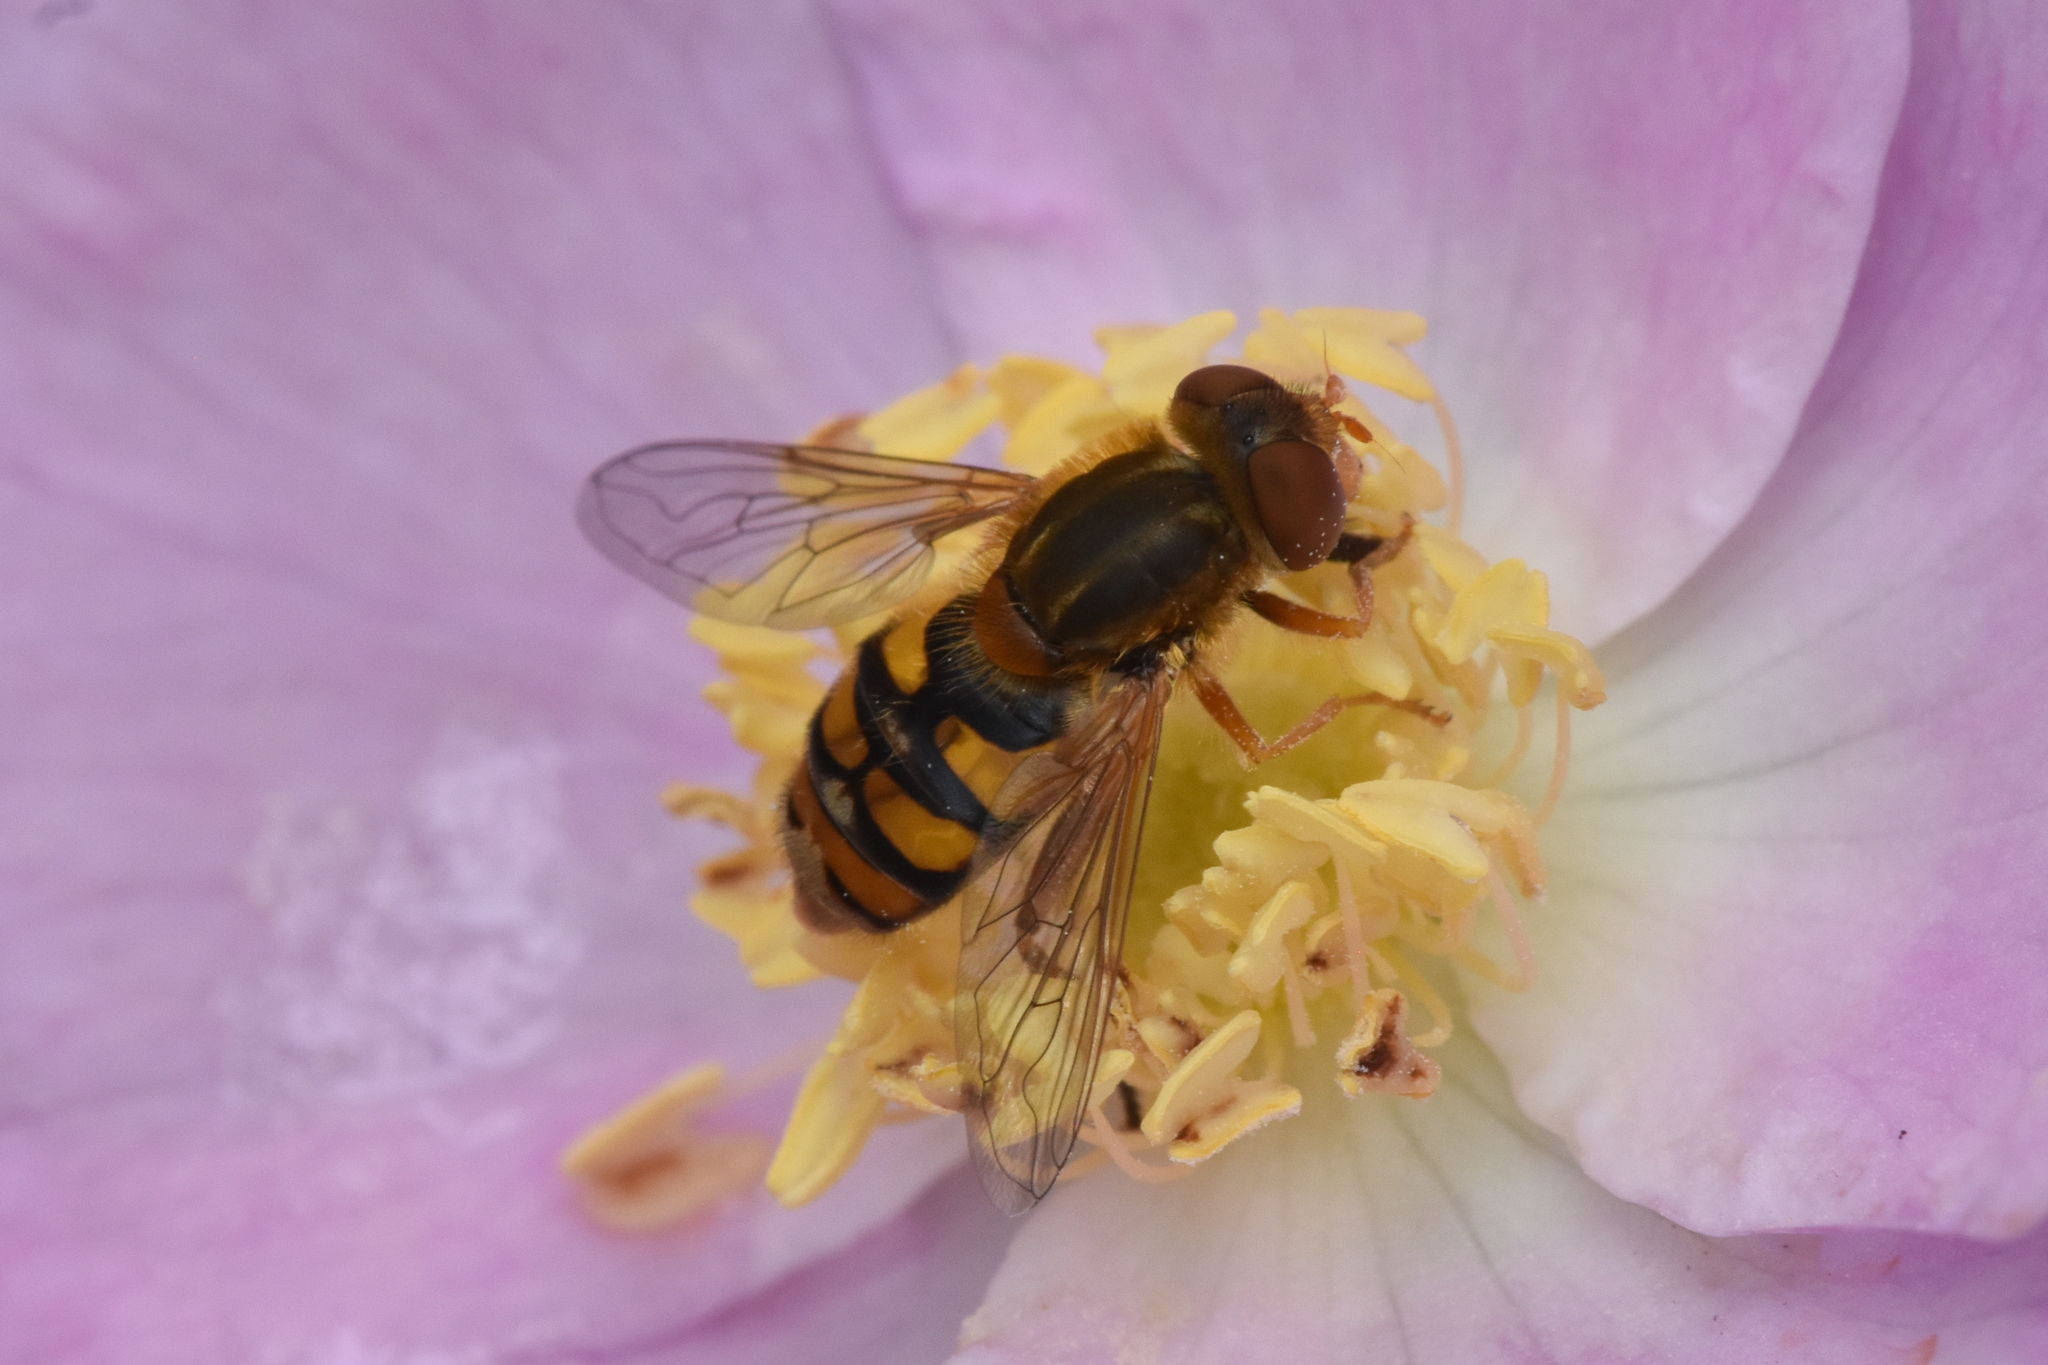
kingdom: Animalia
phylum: Arthropoda
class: Insecta
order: Diptera
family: Syrphidae
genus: Parhelophilus
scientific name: Parhelophilus obsoletus
